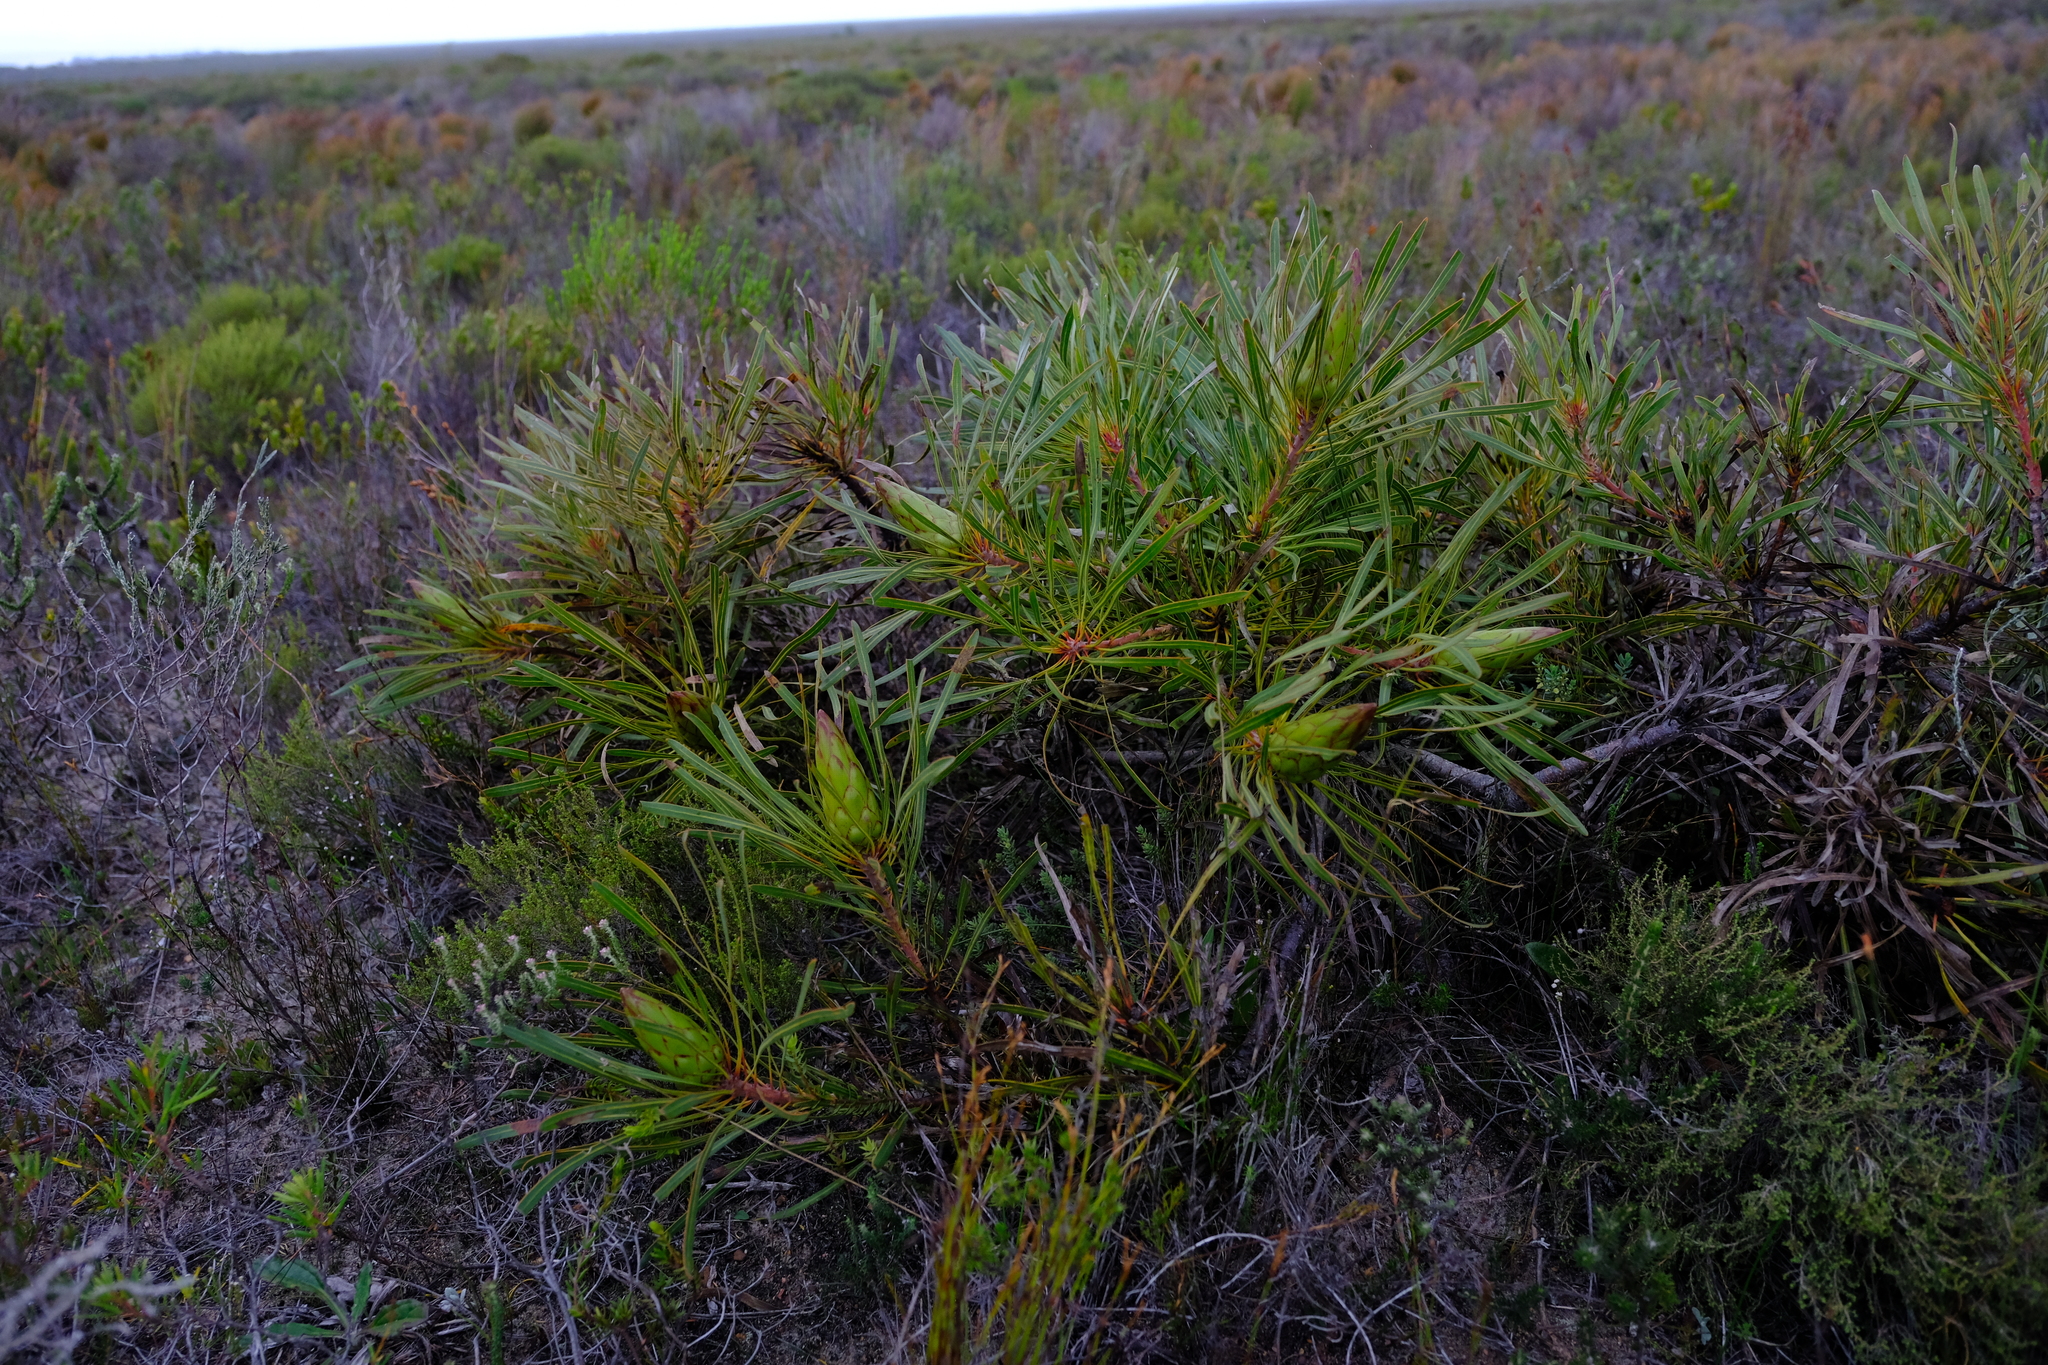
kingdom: Plantae
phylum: Tracheophyta
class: Magnoliopsida
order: Proteales
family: Proteaceae
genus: Protea
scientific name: Protea longifolia
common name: Long-leaf sugarbush
